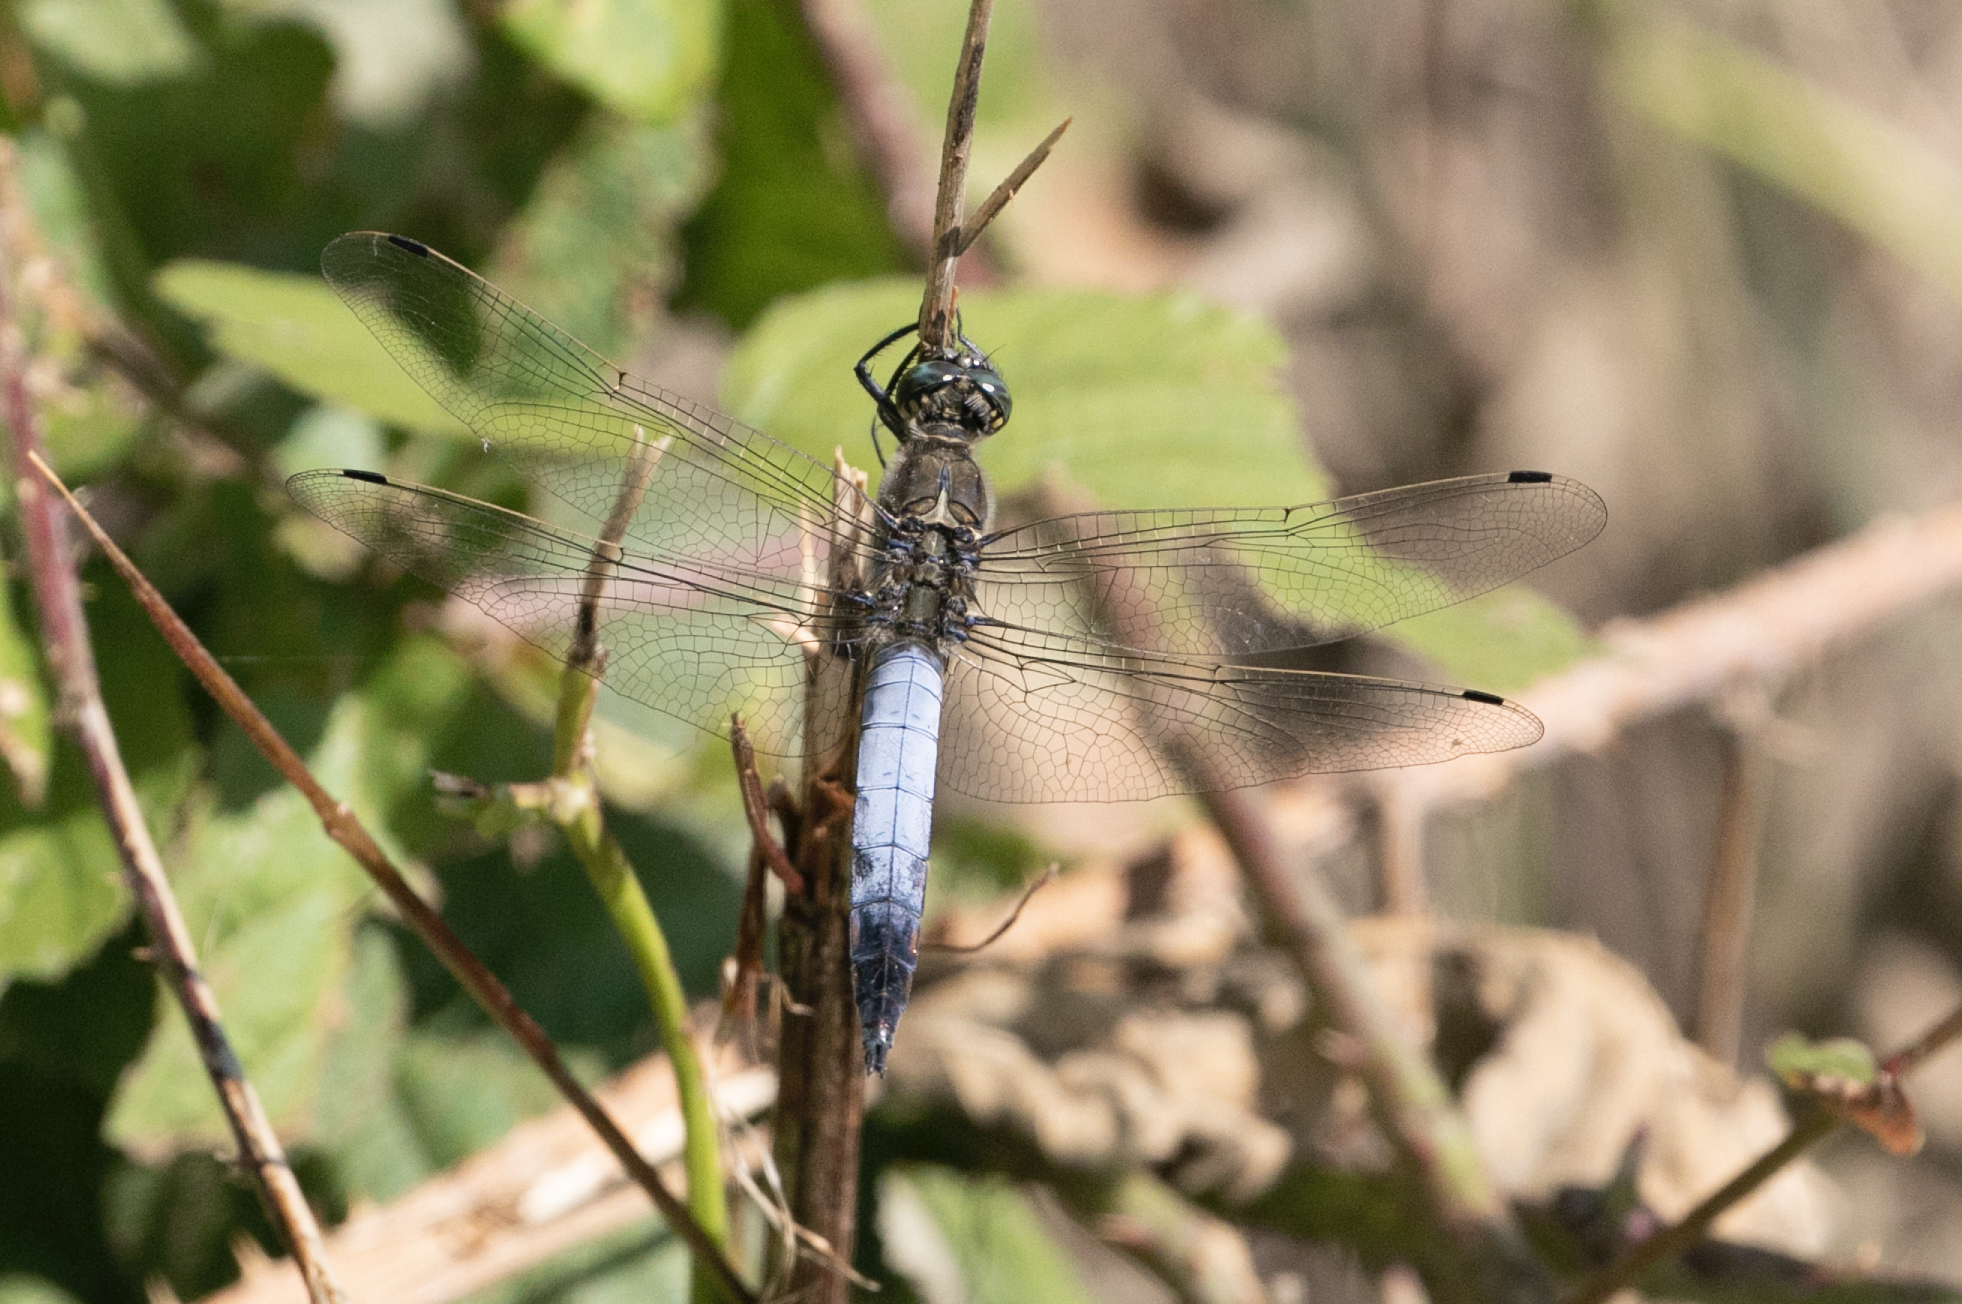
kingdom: Animalia
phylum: Arthropoda
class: Insecta
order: Odonata
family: Libellulidae
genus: Orthetrum
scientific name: Orthetrum cancellatum
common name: Black-tailed skimmer
